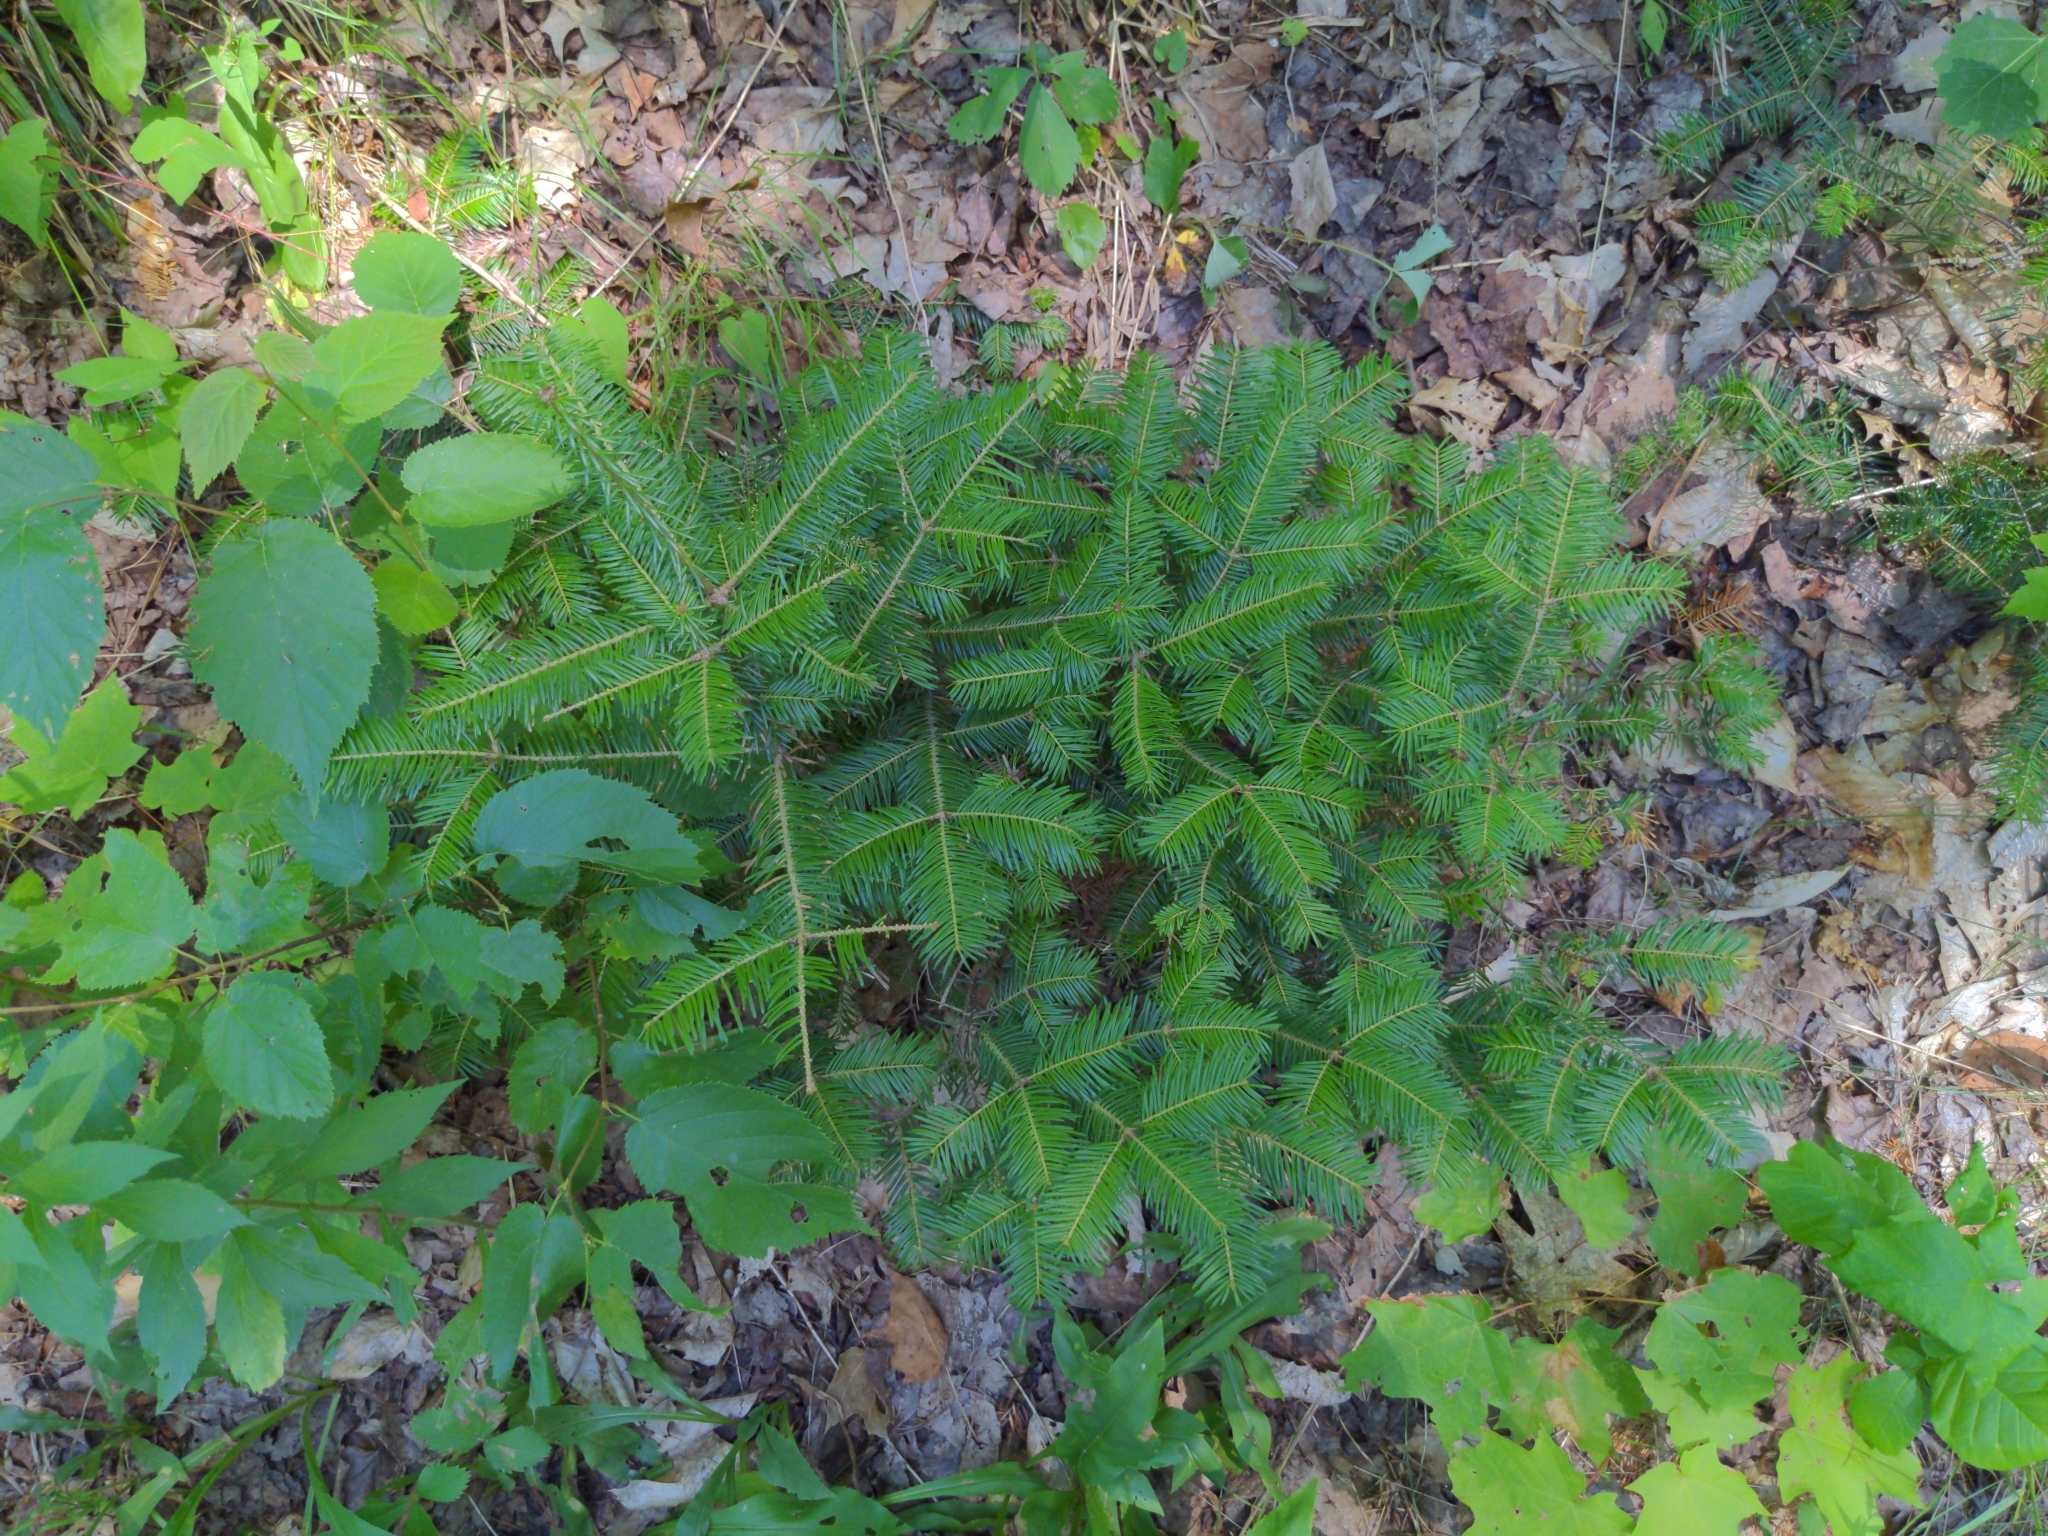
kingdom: Plantae
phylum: Tracheophyta
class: Pinopsida
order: Pinales
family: Pinaceae
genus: Abies
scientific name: Abies balsamea
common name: Balsam fir
